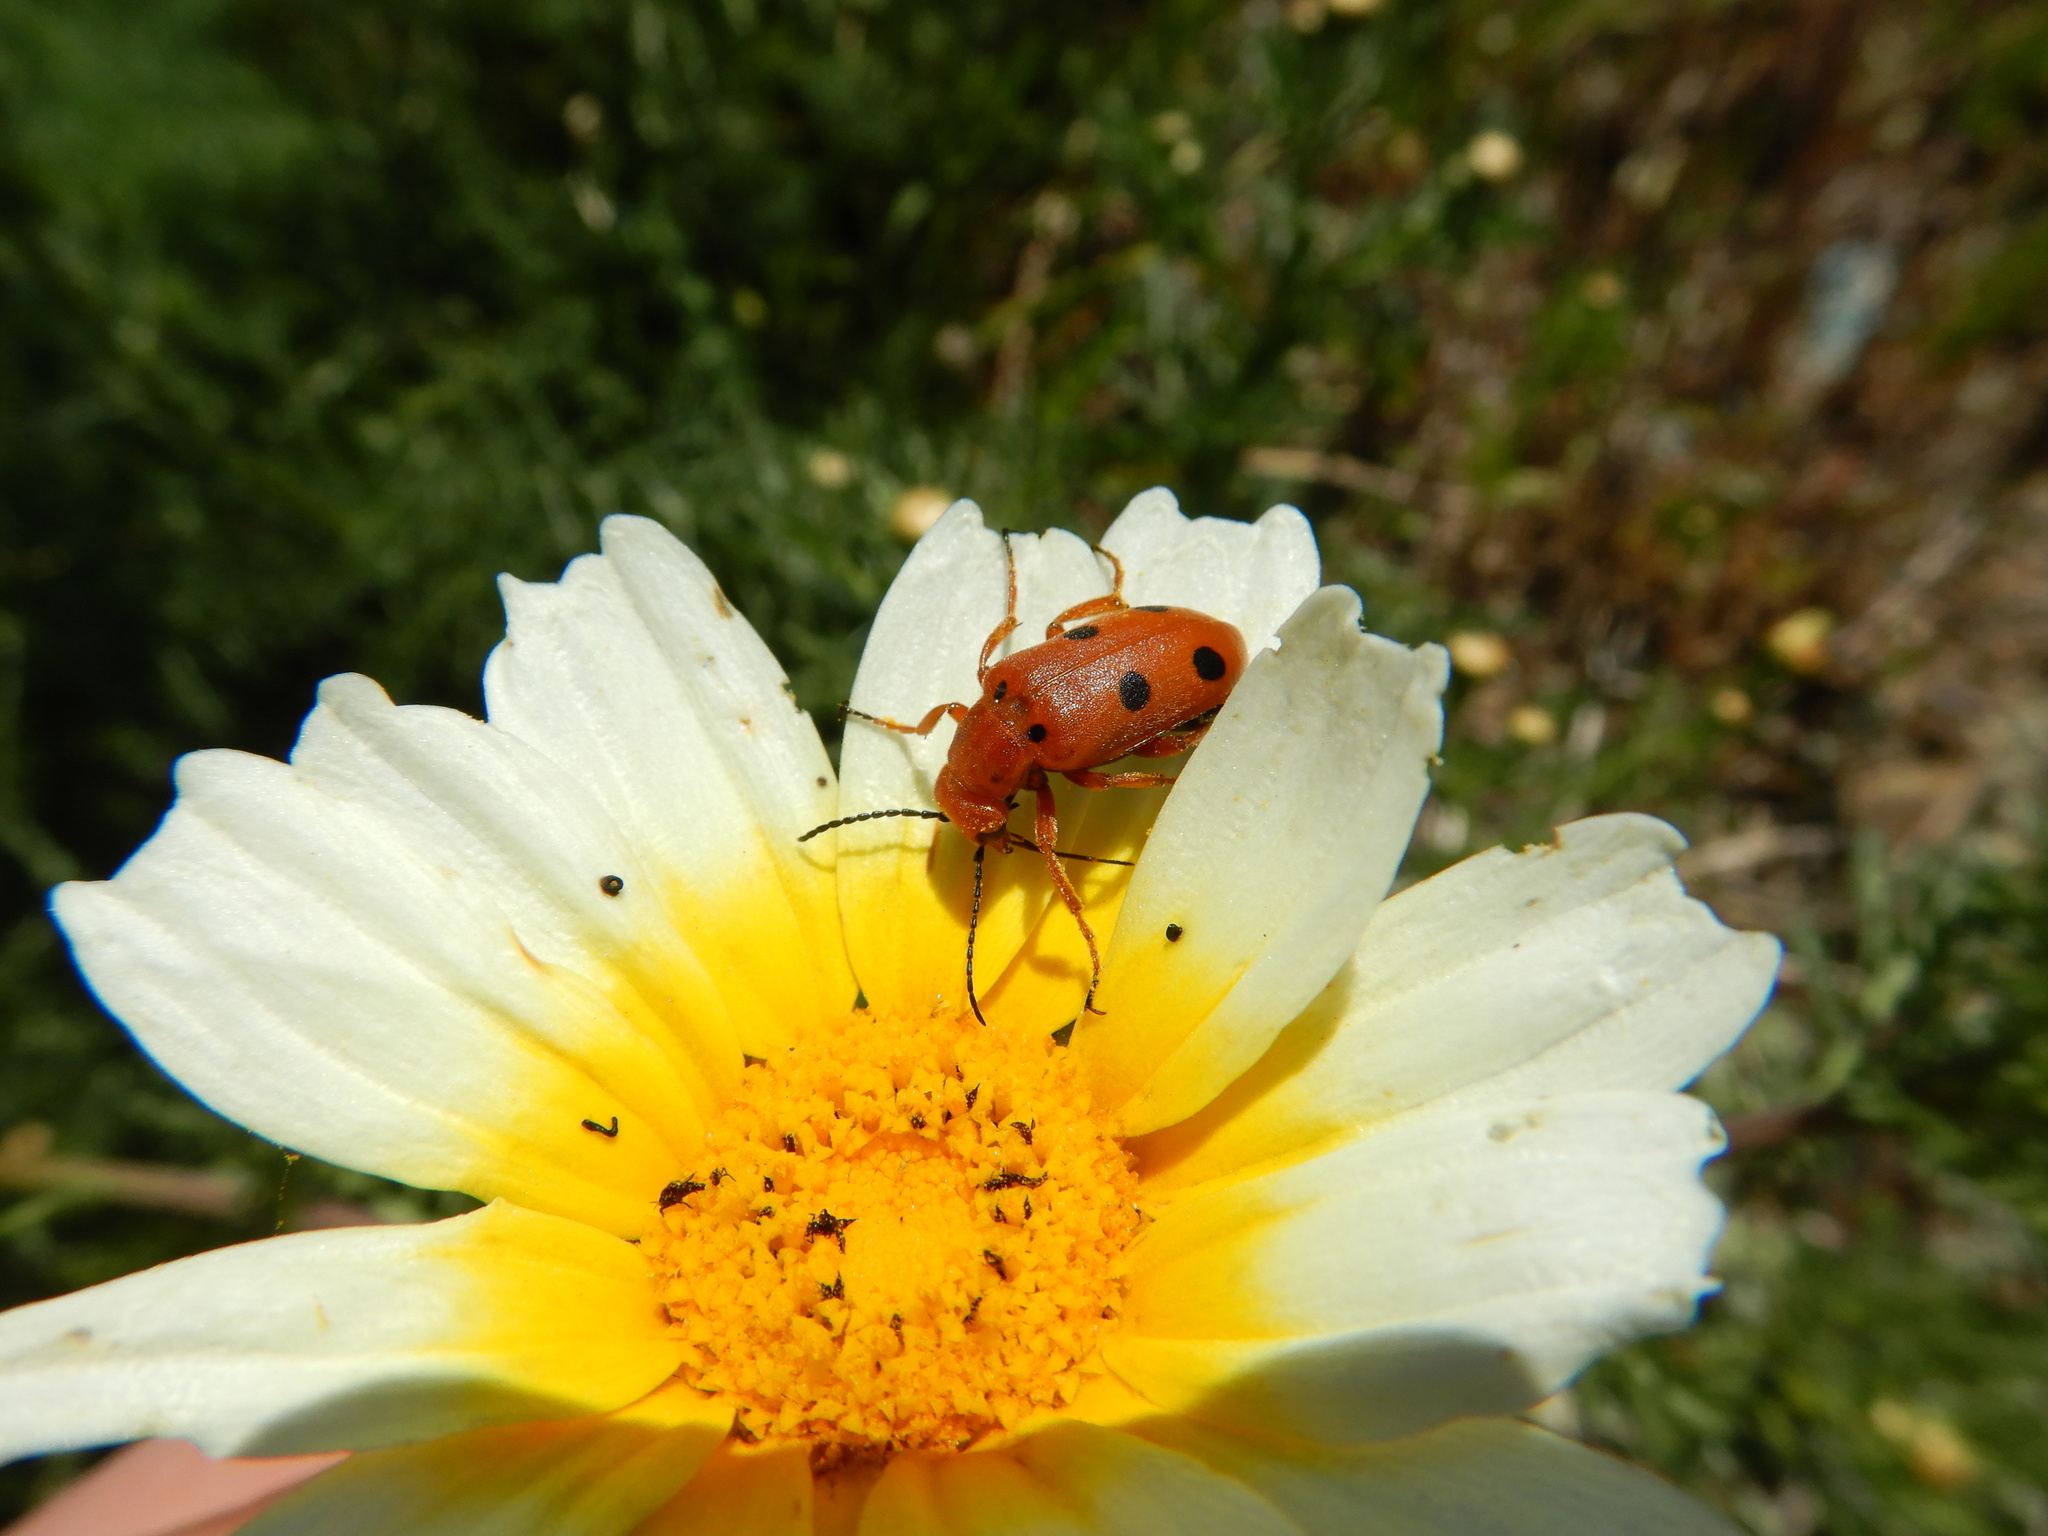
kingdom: Animalia
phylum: Arthropoda
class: Insecta
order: Coleoptera
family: Meloidae
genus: Leptopalpus
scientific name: Leptopalpus rostratus
